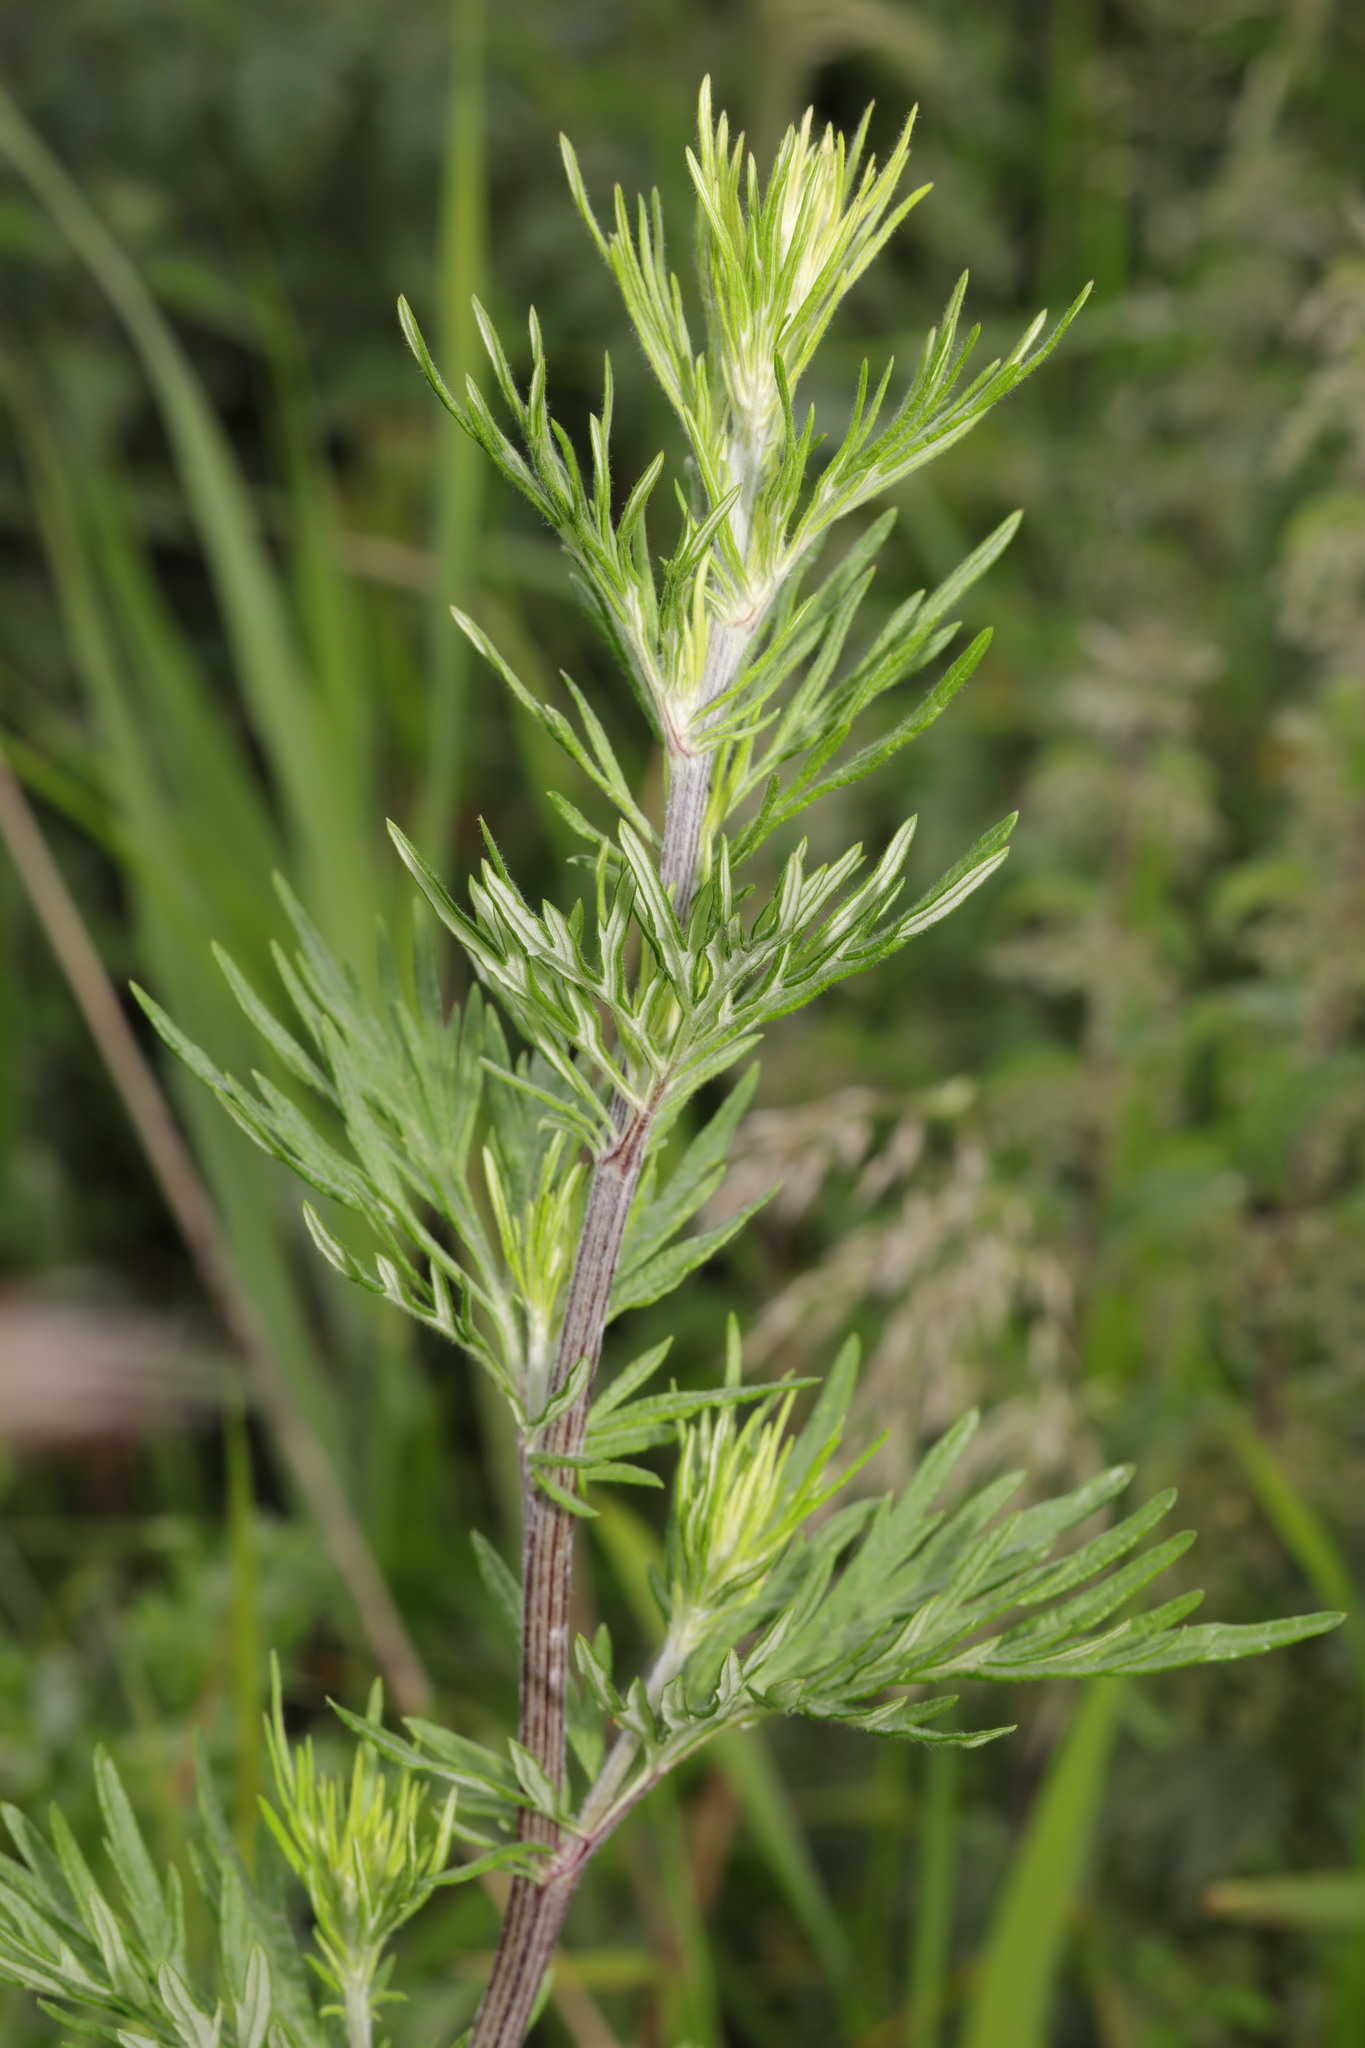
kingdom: Plantae
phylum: Tracheophyta
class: Magnoliopsida
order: Asterales
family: Asteraceae
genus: Artemisia
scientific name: Artemisia vulgaris
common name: Mugwort
